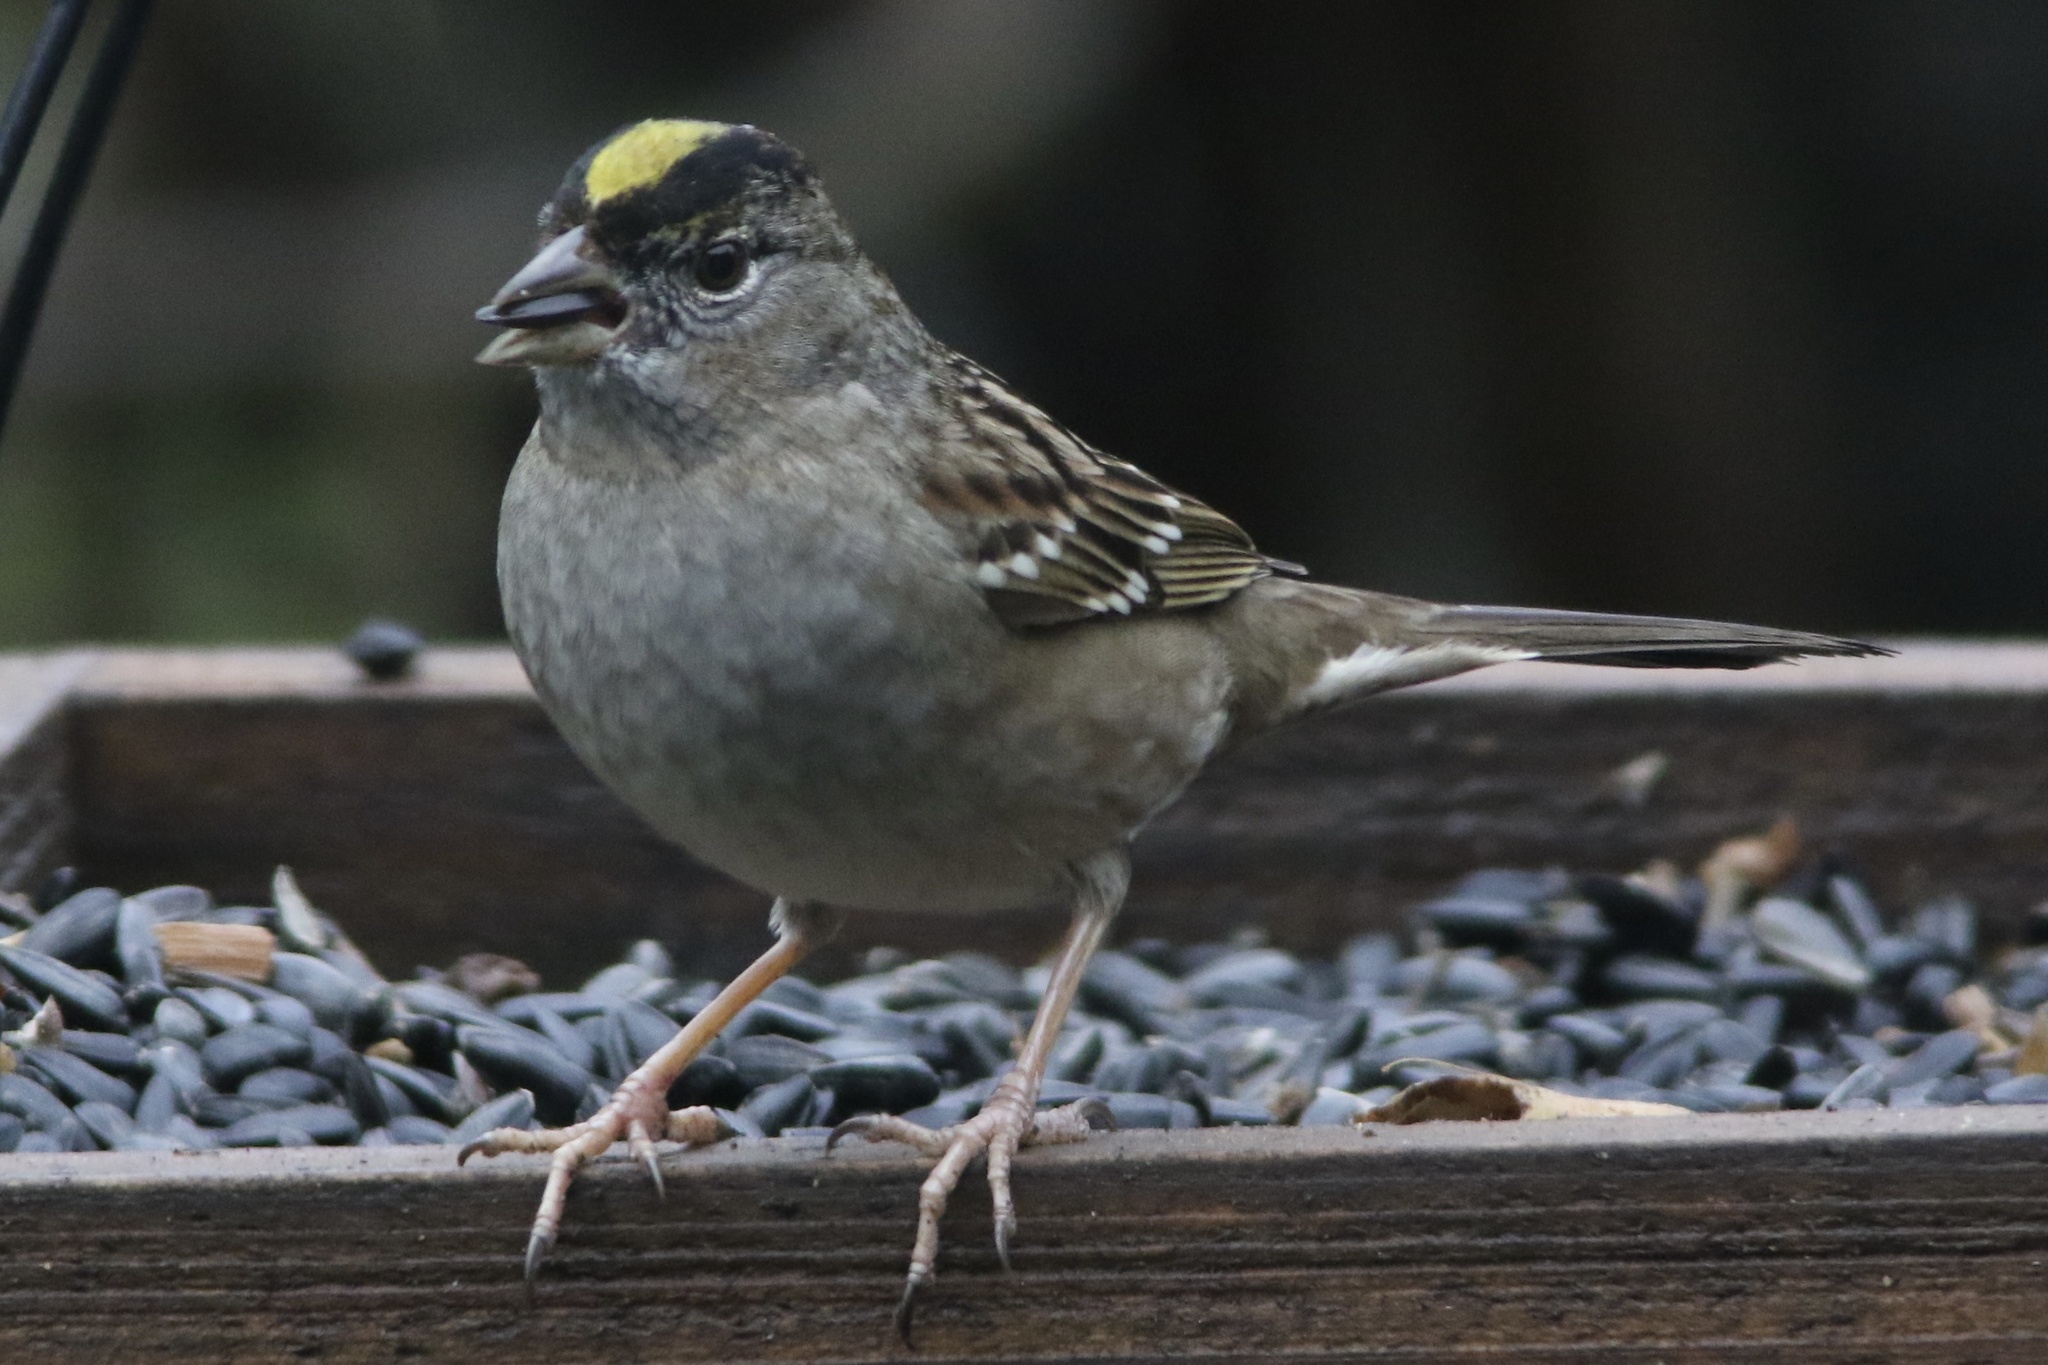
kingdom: Animalia
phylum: Chordata
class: Aves
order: Passeriformes
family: Passerellidae
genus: Zonotrichia
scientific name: Zonotrichia atricapilla
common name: Golden-crowned sparrow
